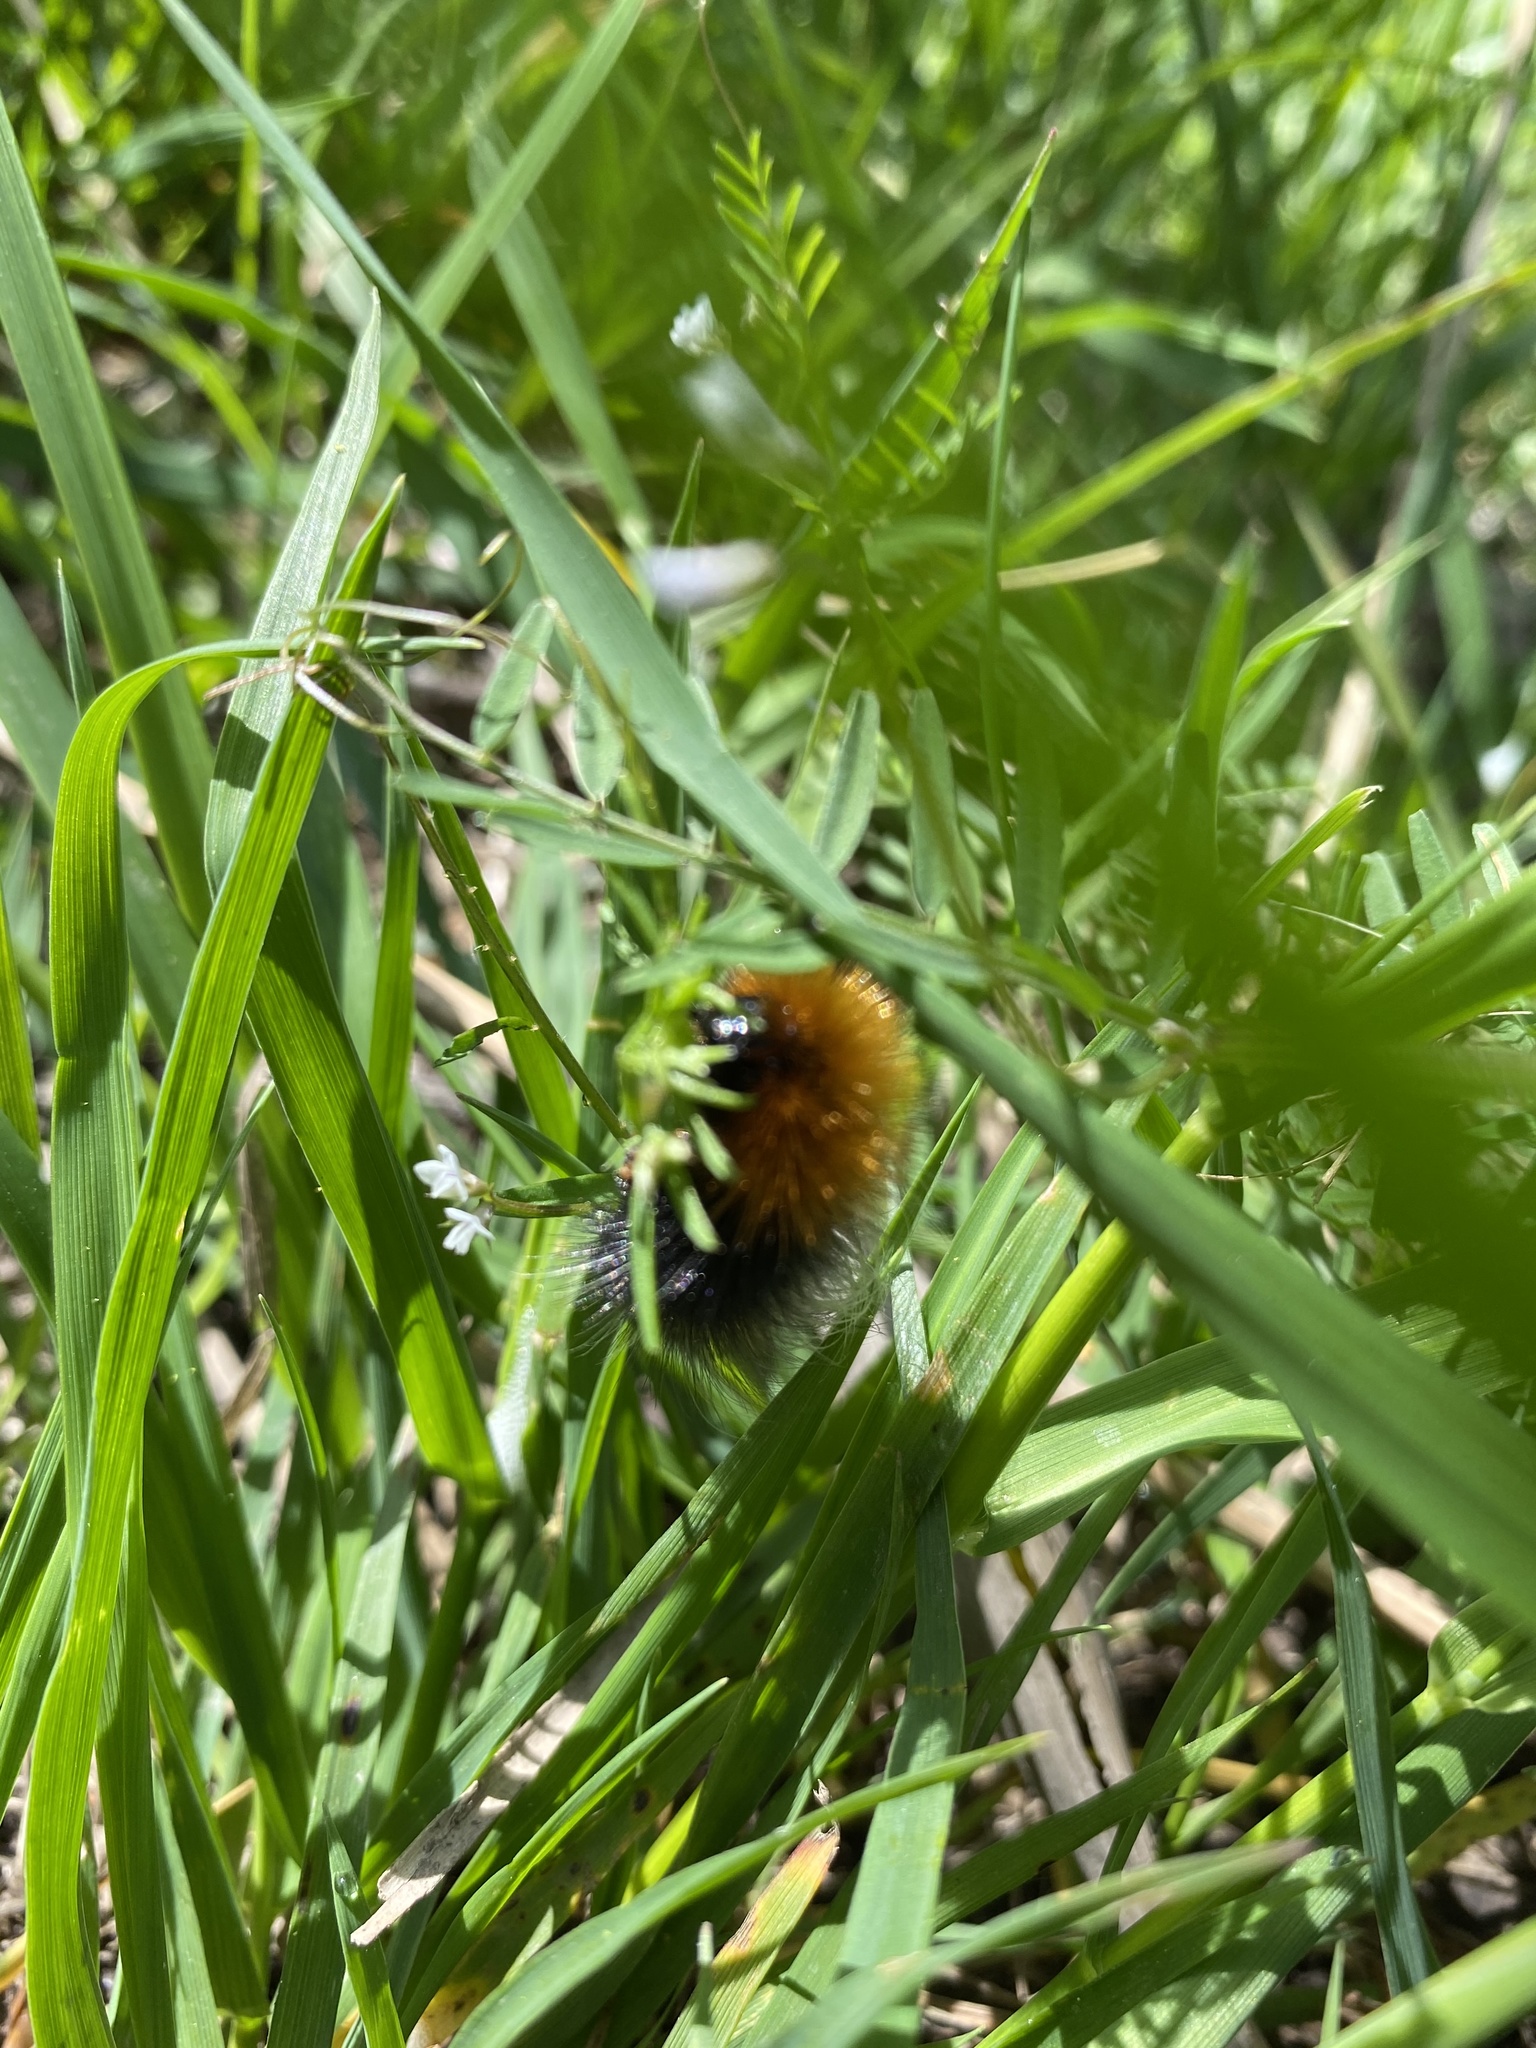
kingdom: Animalia
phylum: Arthropoda
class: Insecta
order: Lepidoptera
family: Erebidae
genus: Arctia
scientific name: Arctia tigrina
